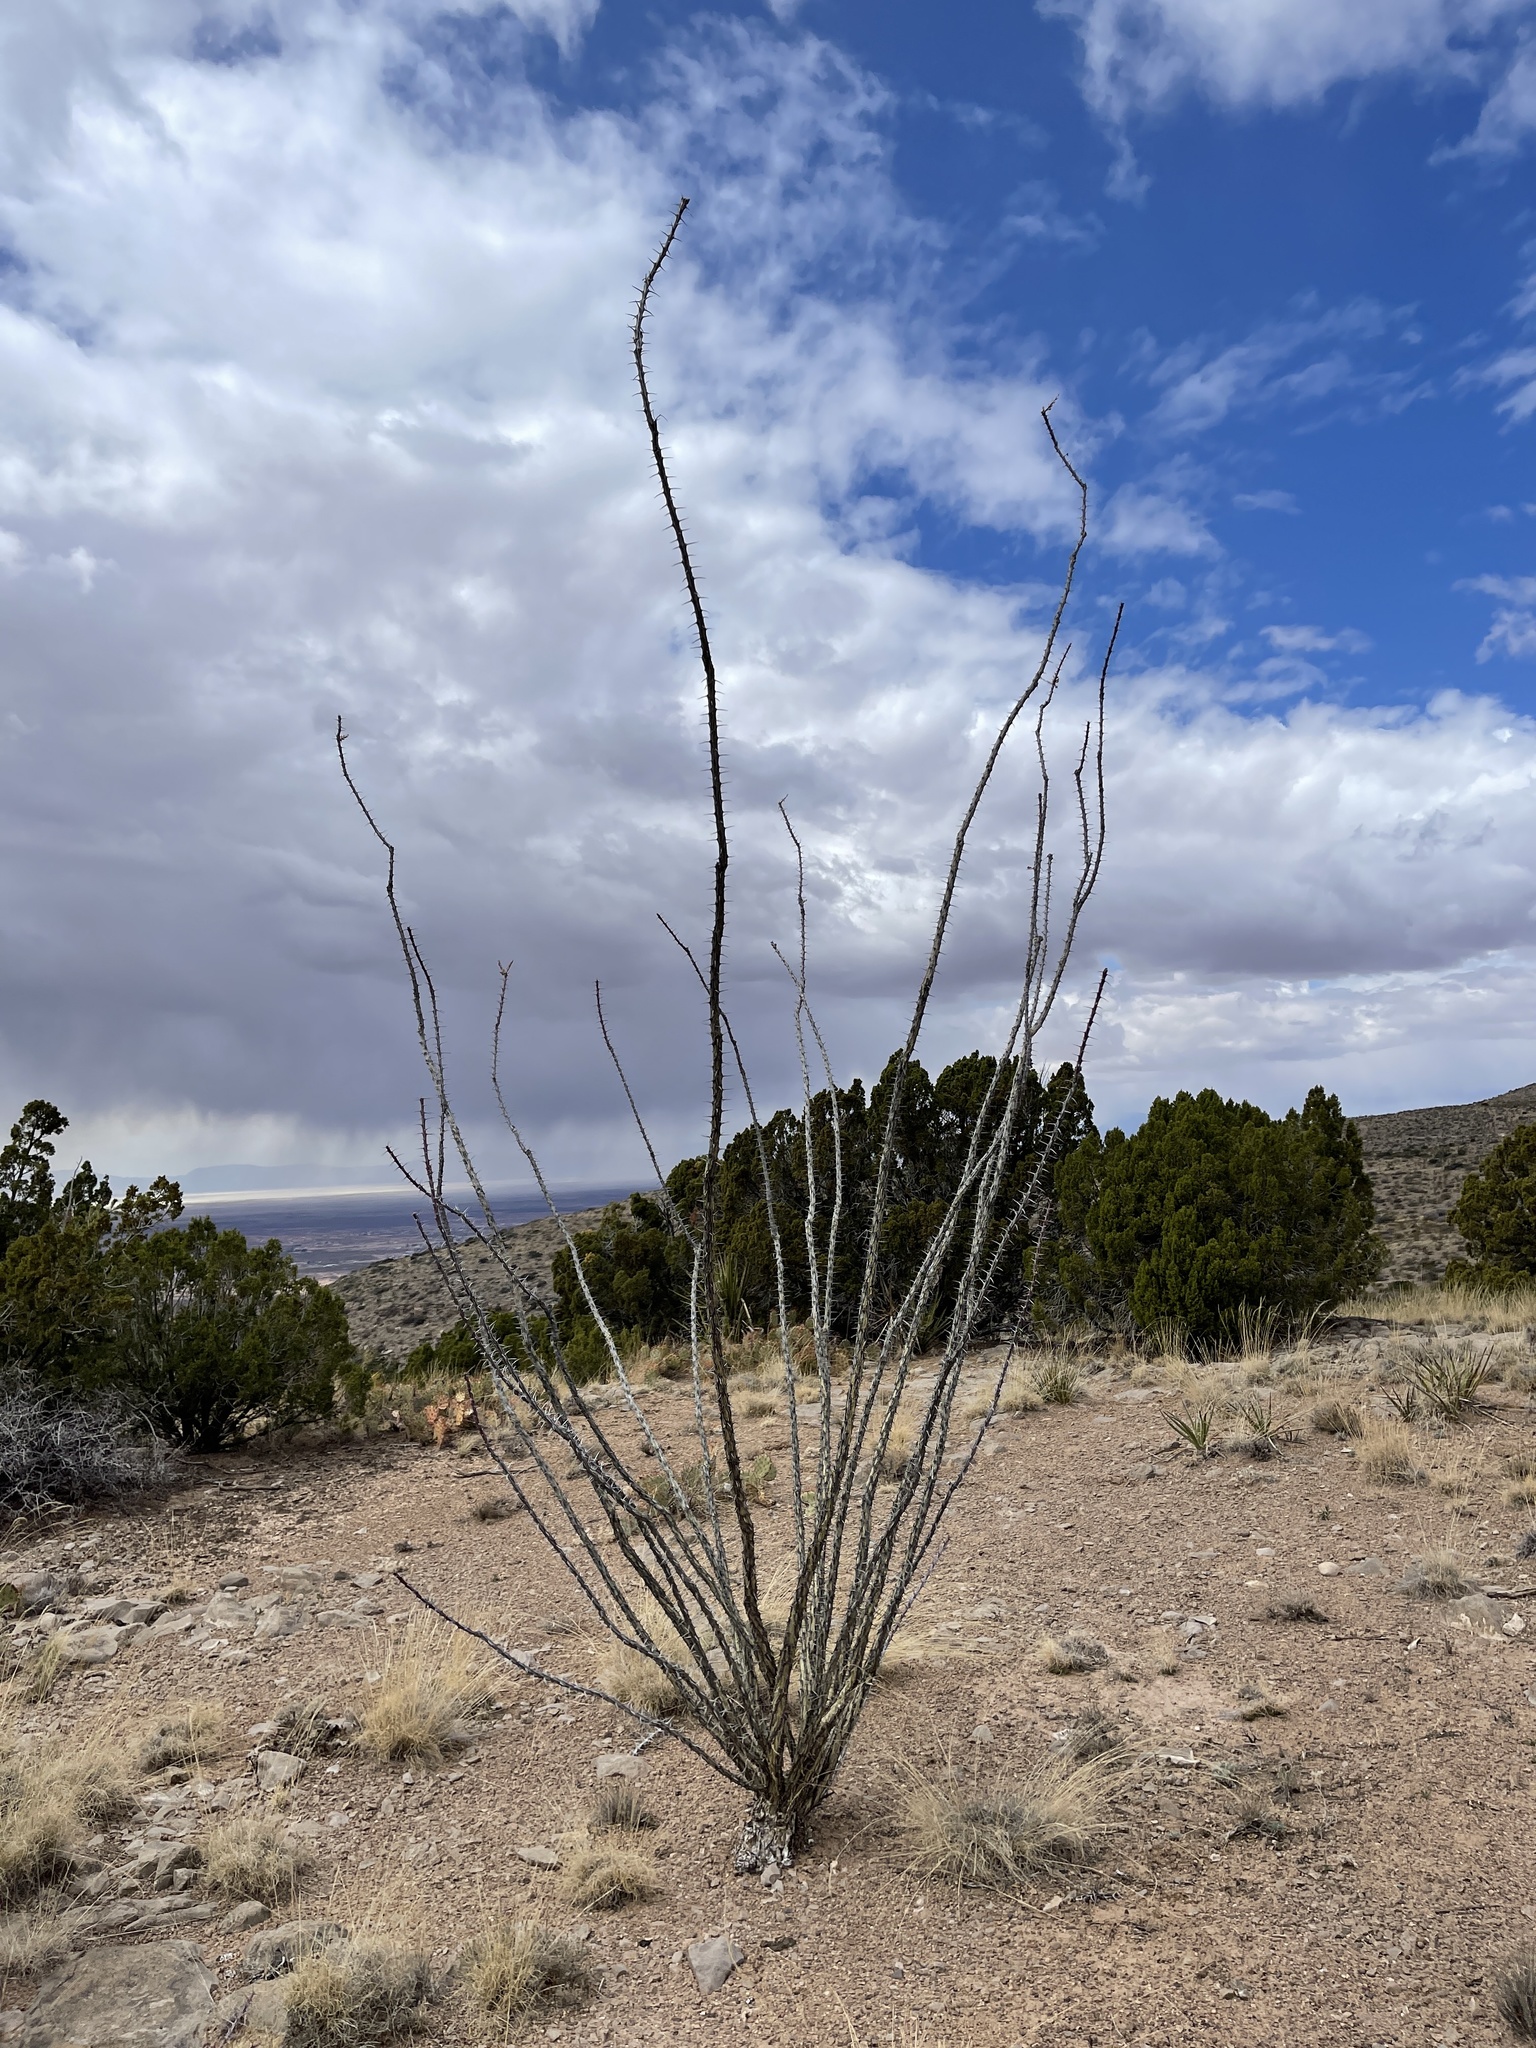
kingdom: Plantae
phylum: Tracheophyta
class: Magnoliopsida
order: Ericales
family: Fouquieriaceae
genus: Fouquieria
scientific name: Fouquieria splendens
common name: Vine-cactus
